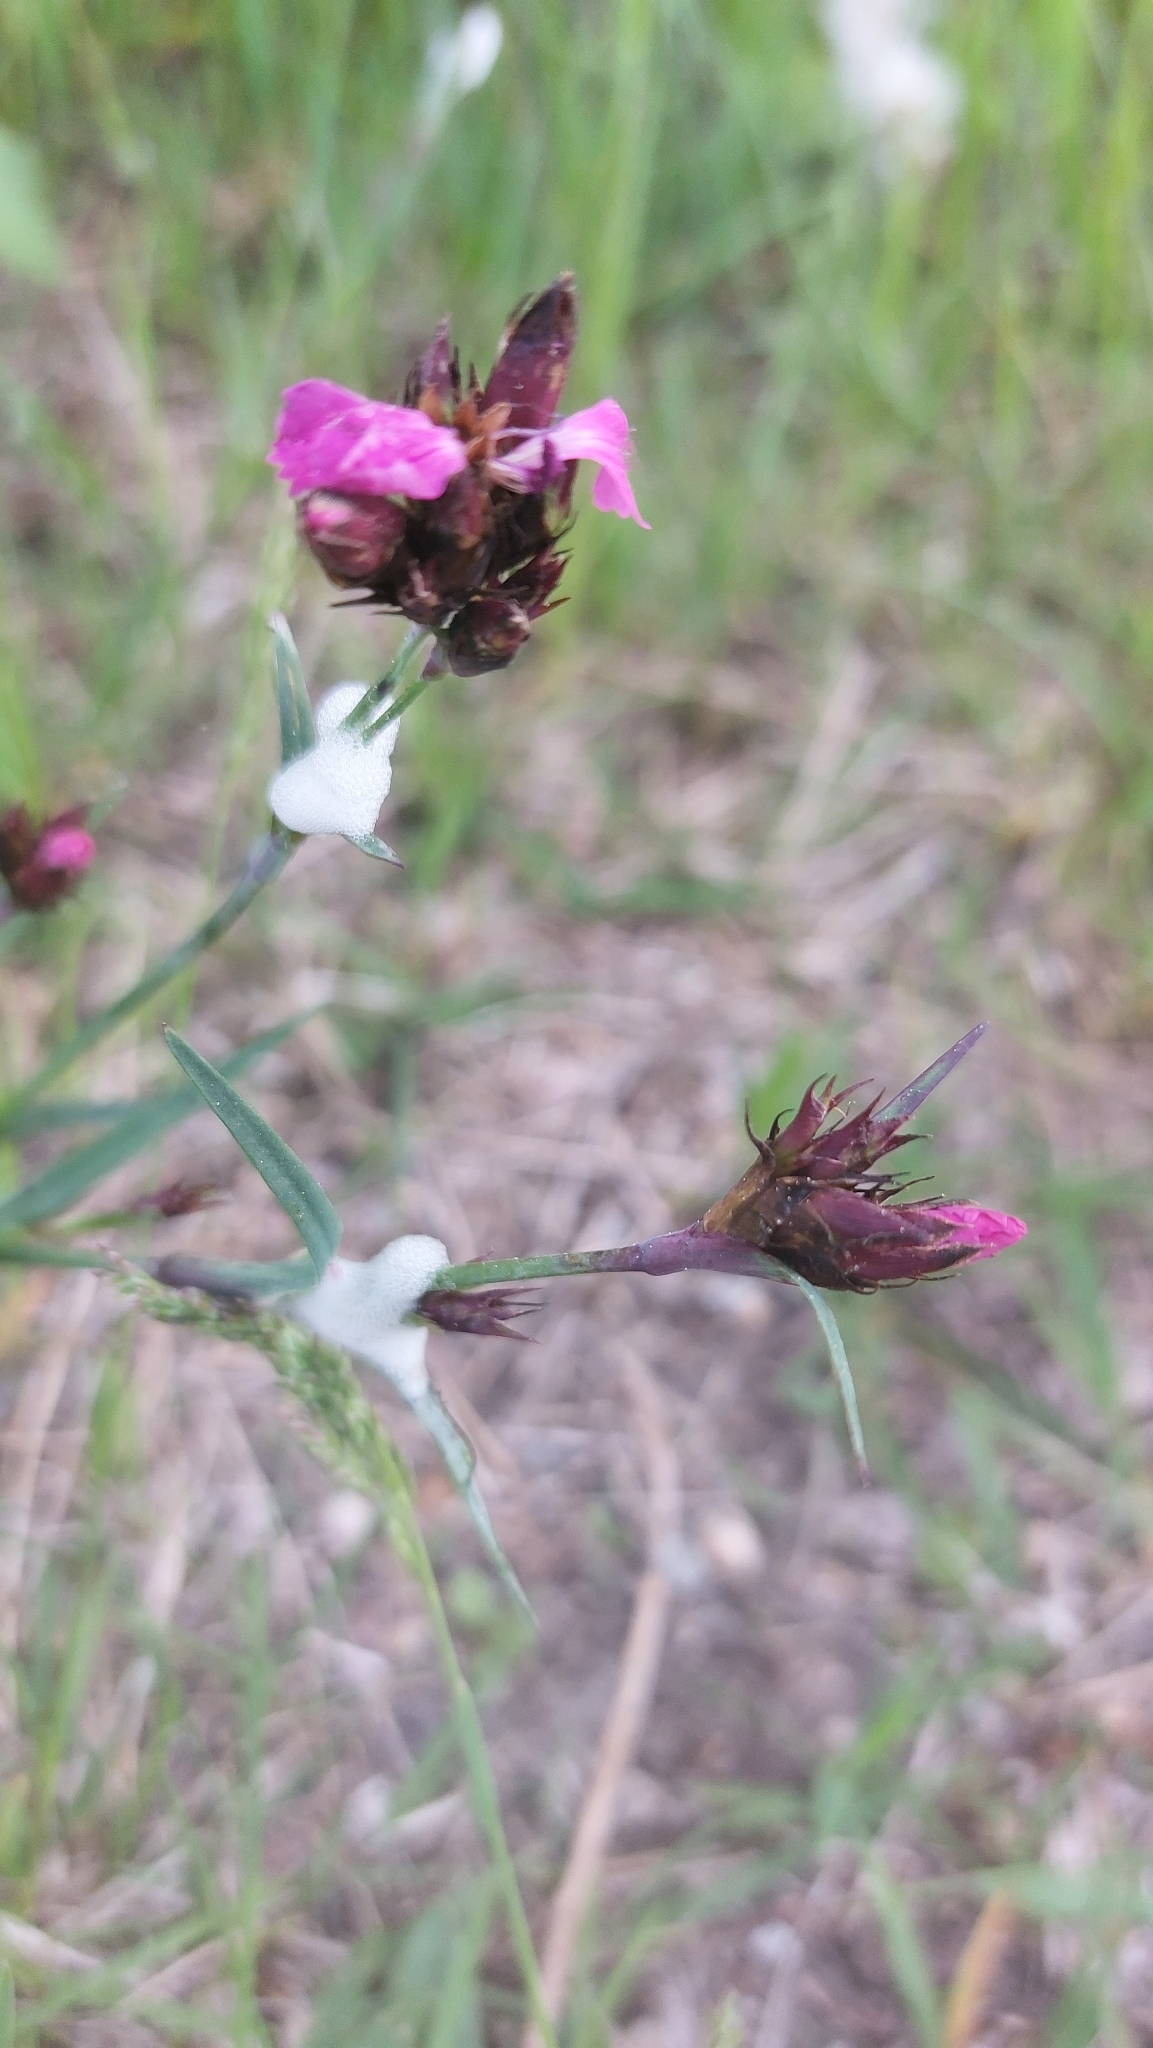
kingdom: Plantae
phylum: Tracheophyta
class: Magnoliopsida
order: Caryophyllales
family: Caryophyllaceae
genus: Dianthus
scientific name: Dianthus carthusianorum
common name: Carthusian pink
